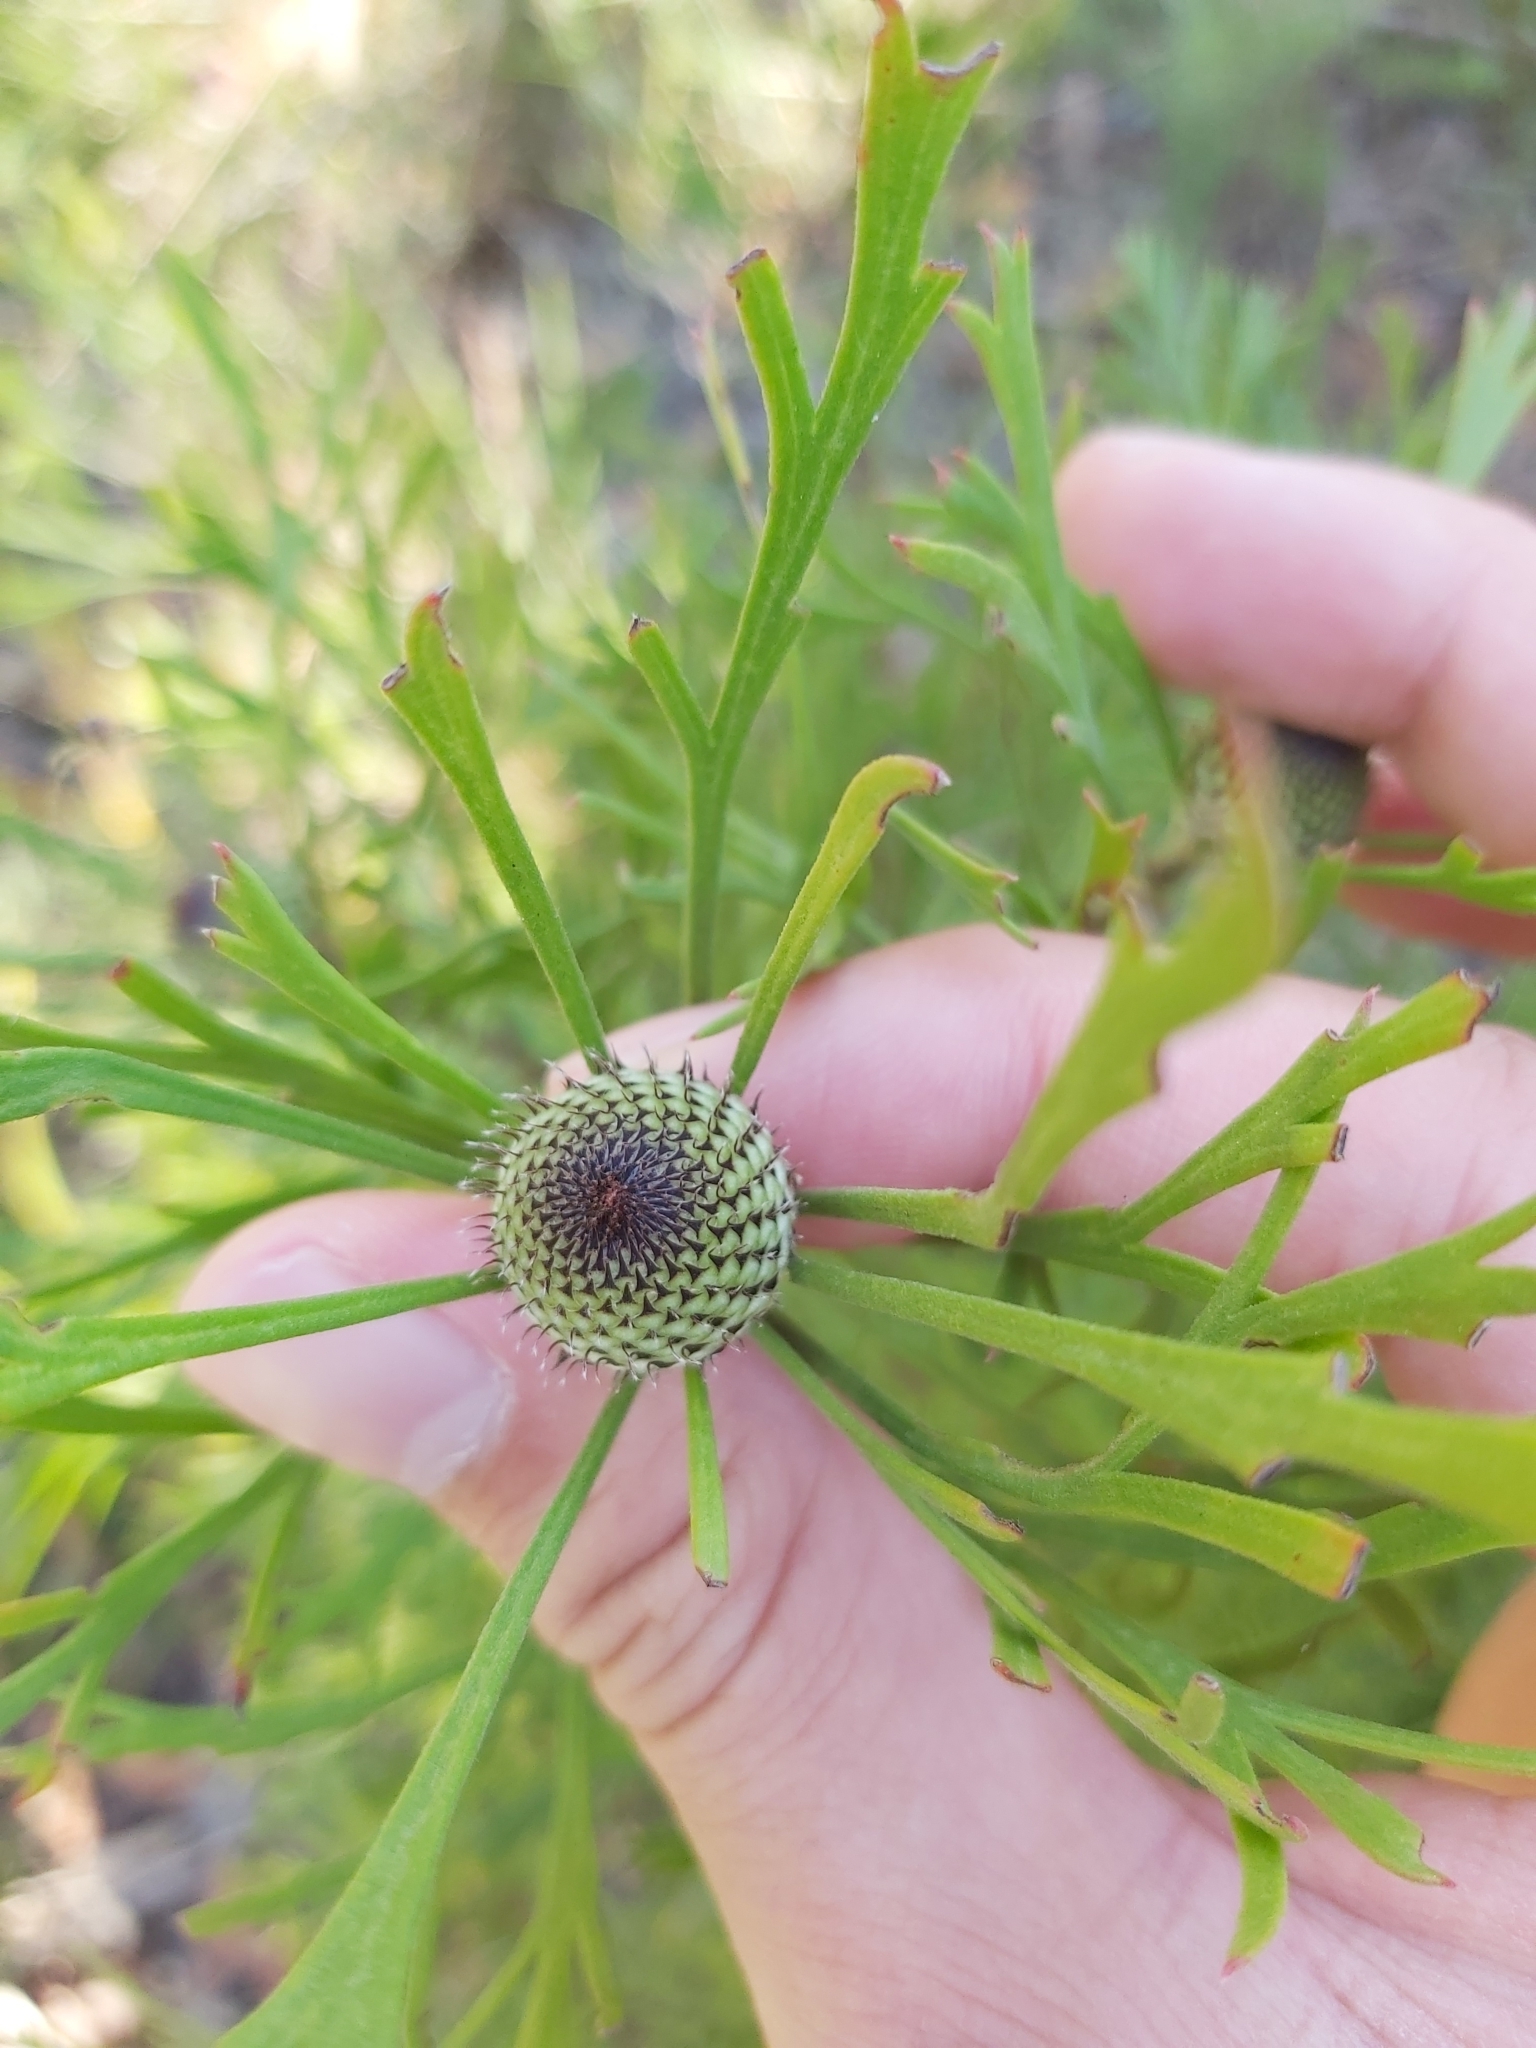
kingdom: Plantae
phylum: Tracheophyta
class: Magnoliopsida
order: Proteales
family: Proteaceae
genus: Isopogon
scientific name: Isopogon anemonifolius
